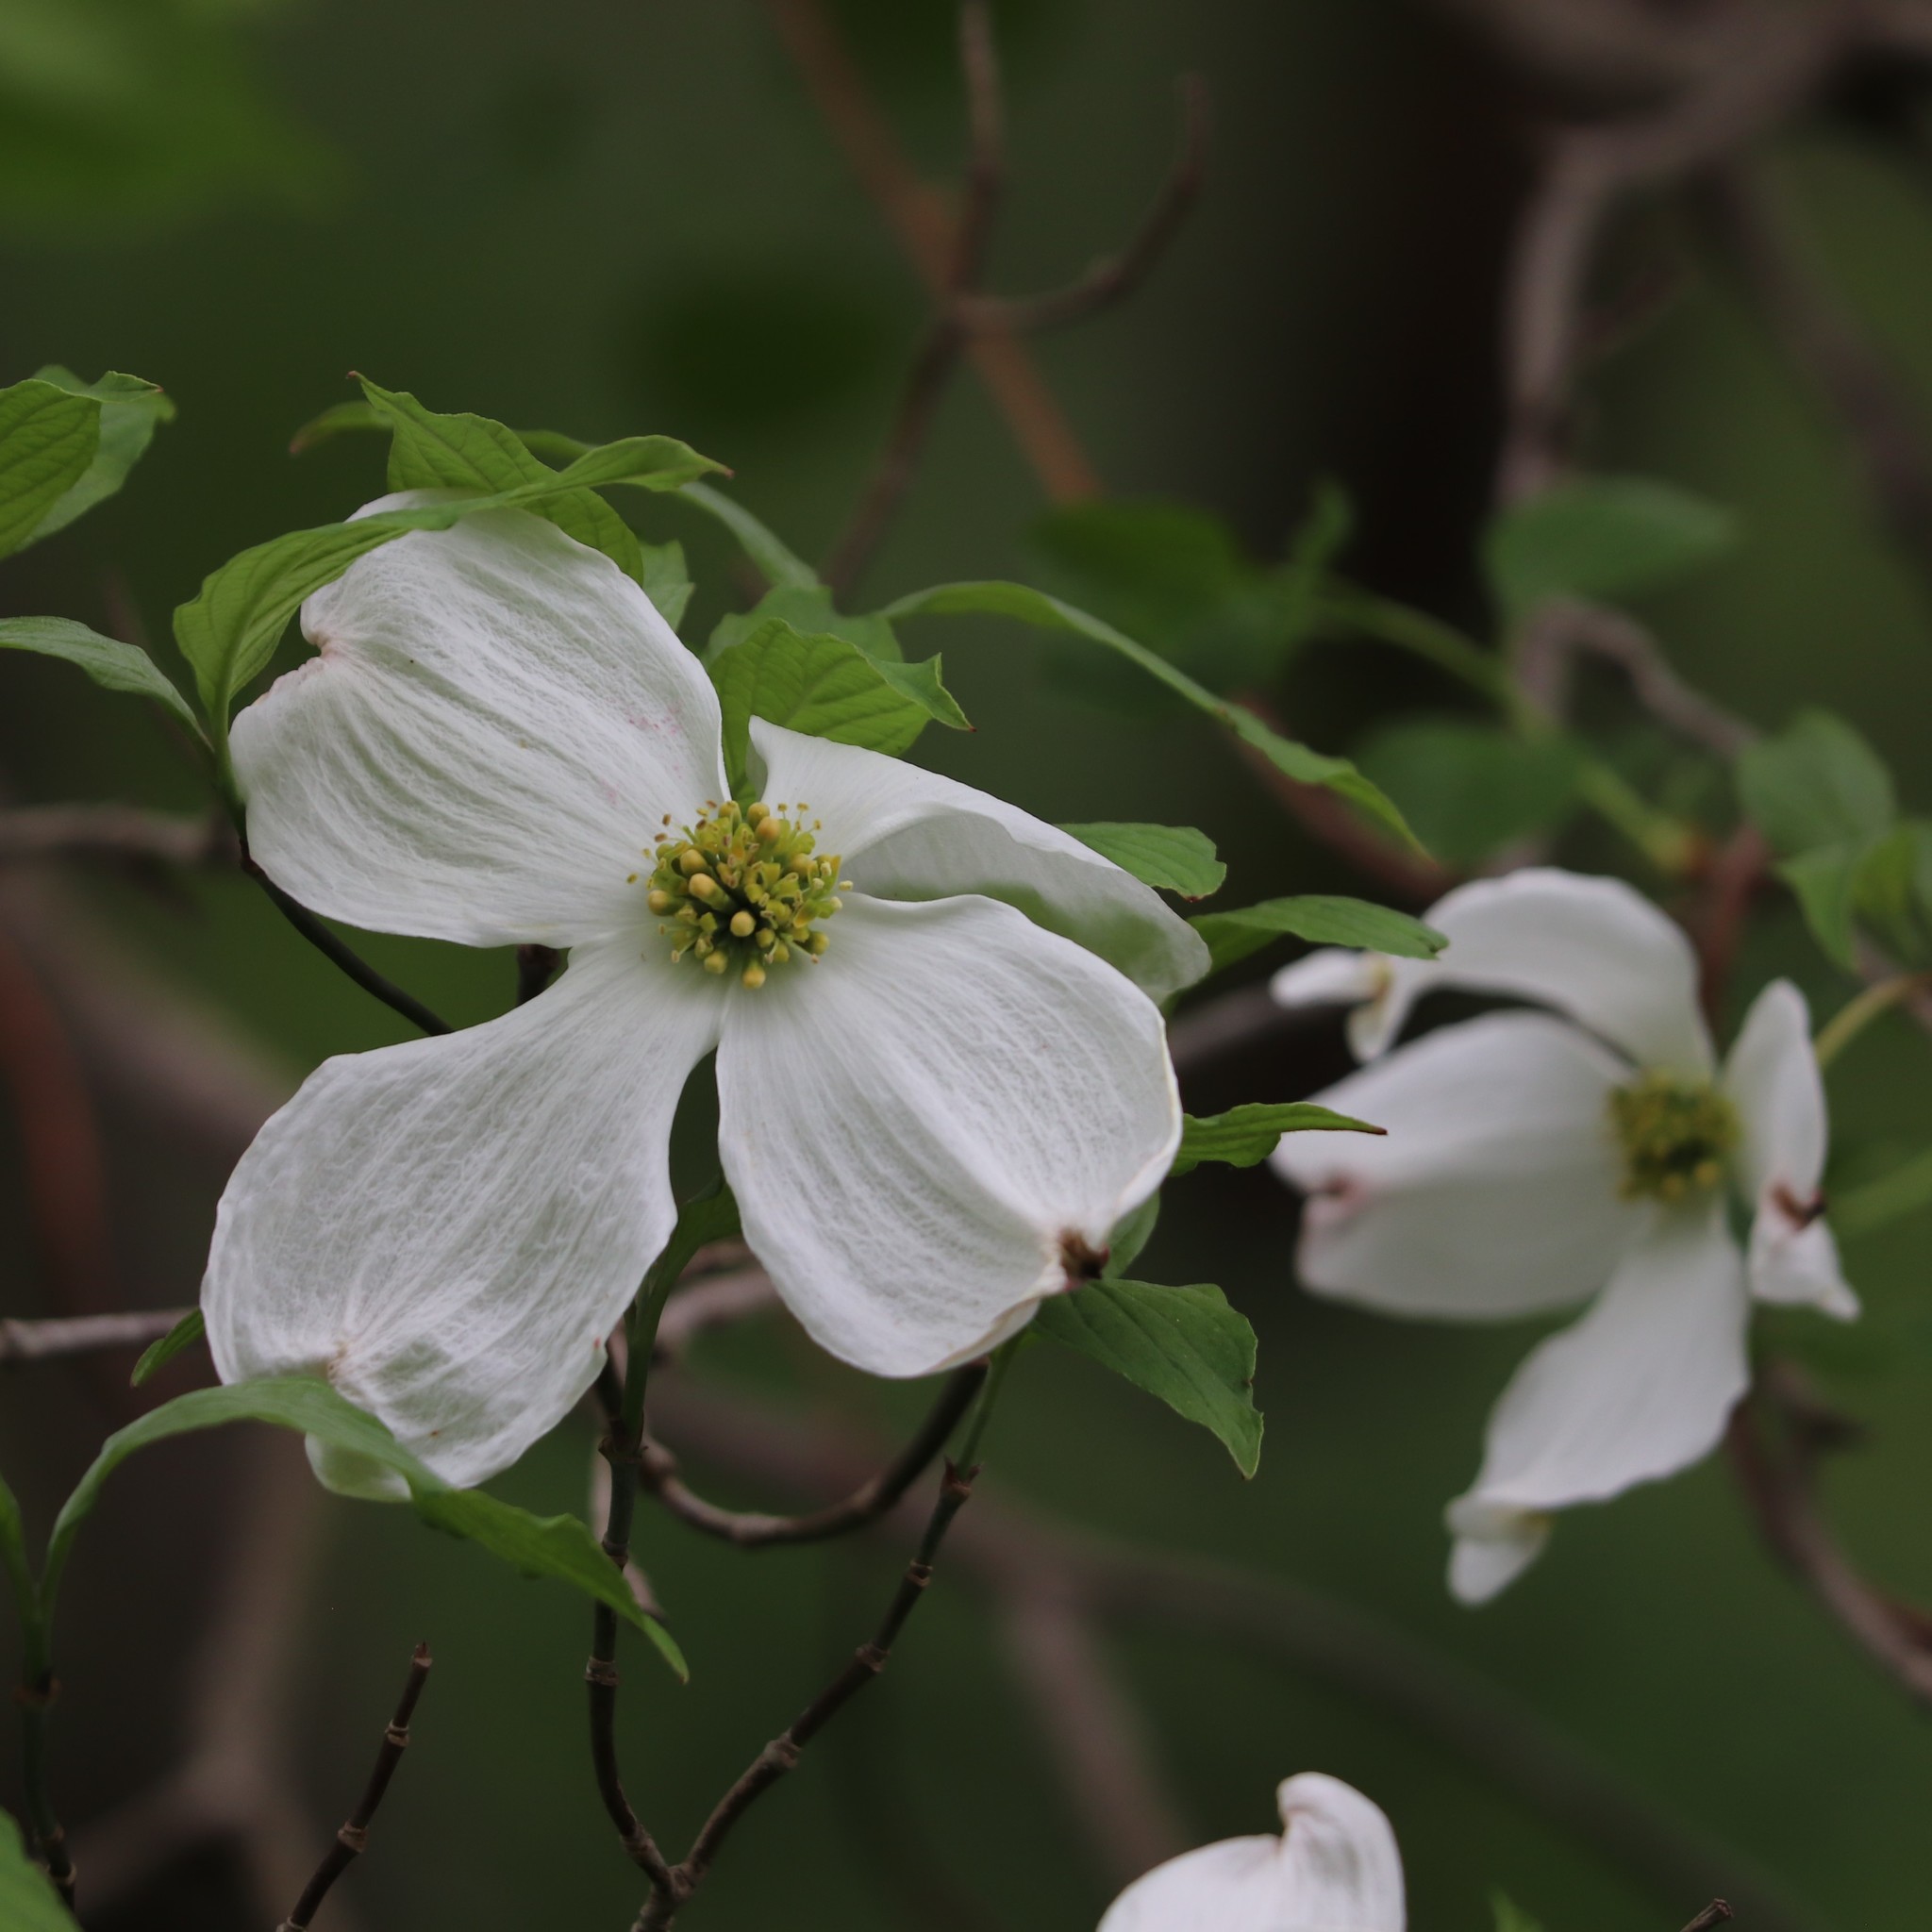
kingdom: Plantae
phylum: Tracheophyta
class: Magnoliopsida
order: Cornales
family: Cornaceae
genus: Cornus
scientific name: Cornus florida
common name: Flowering dogwood
